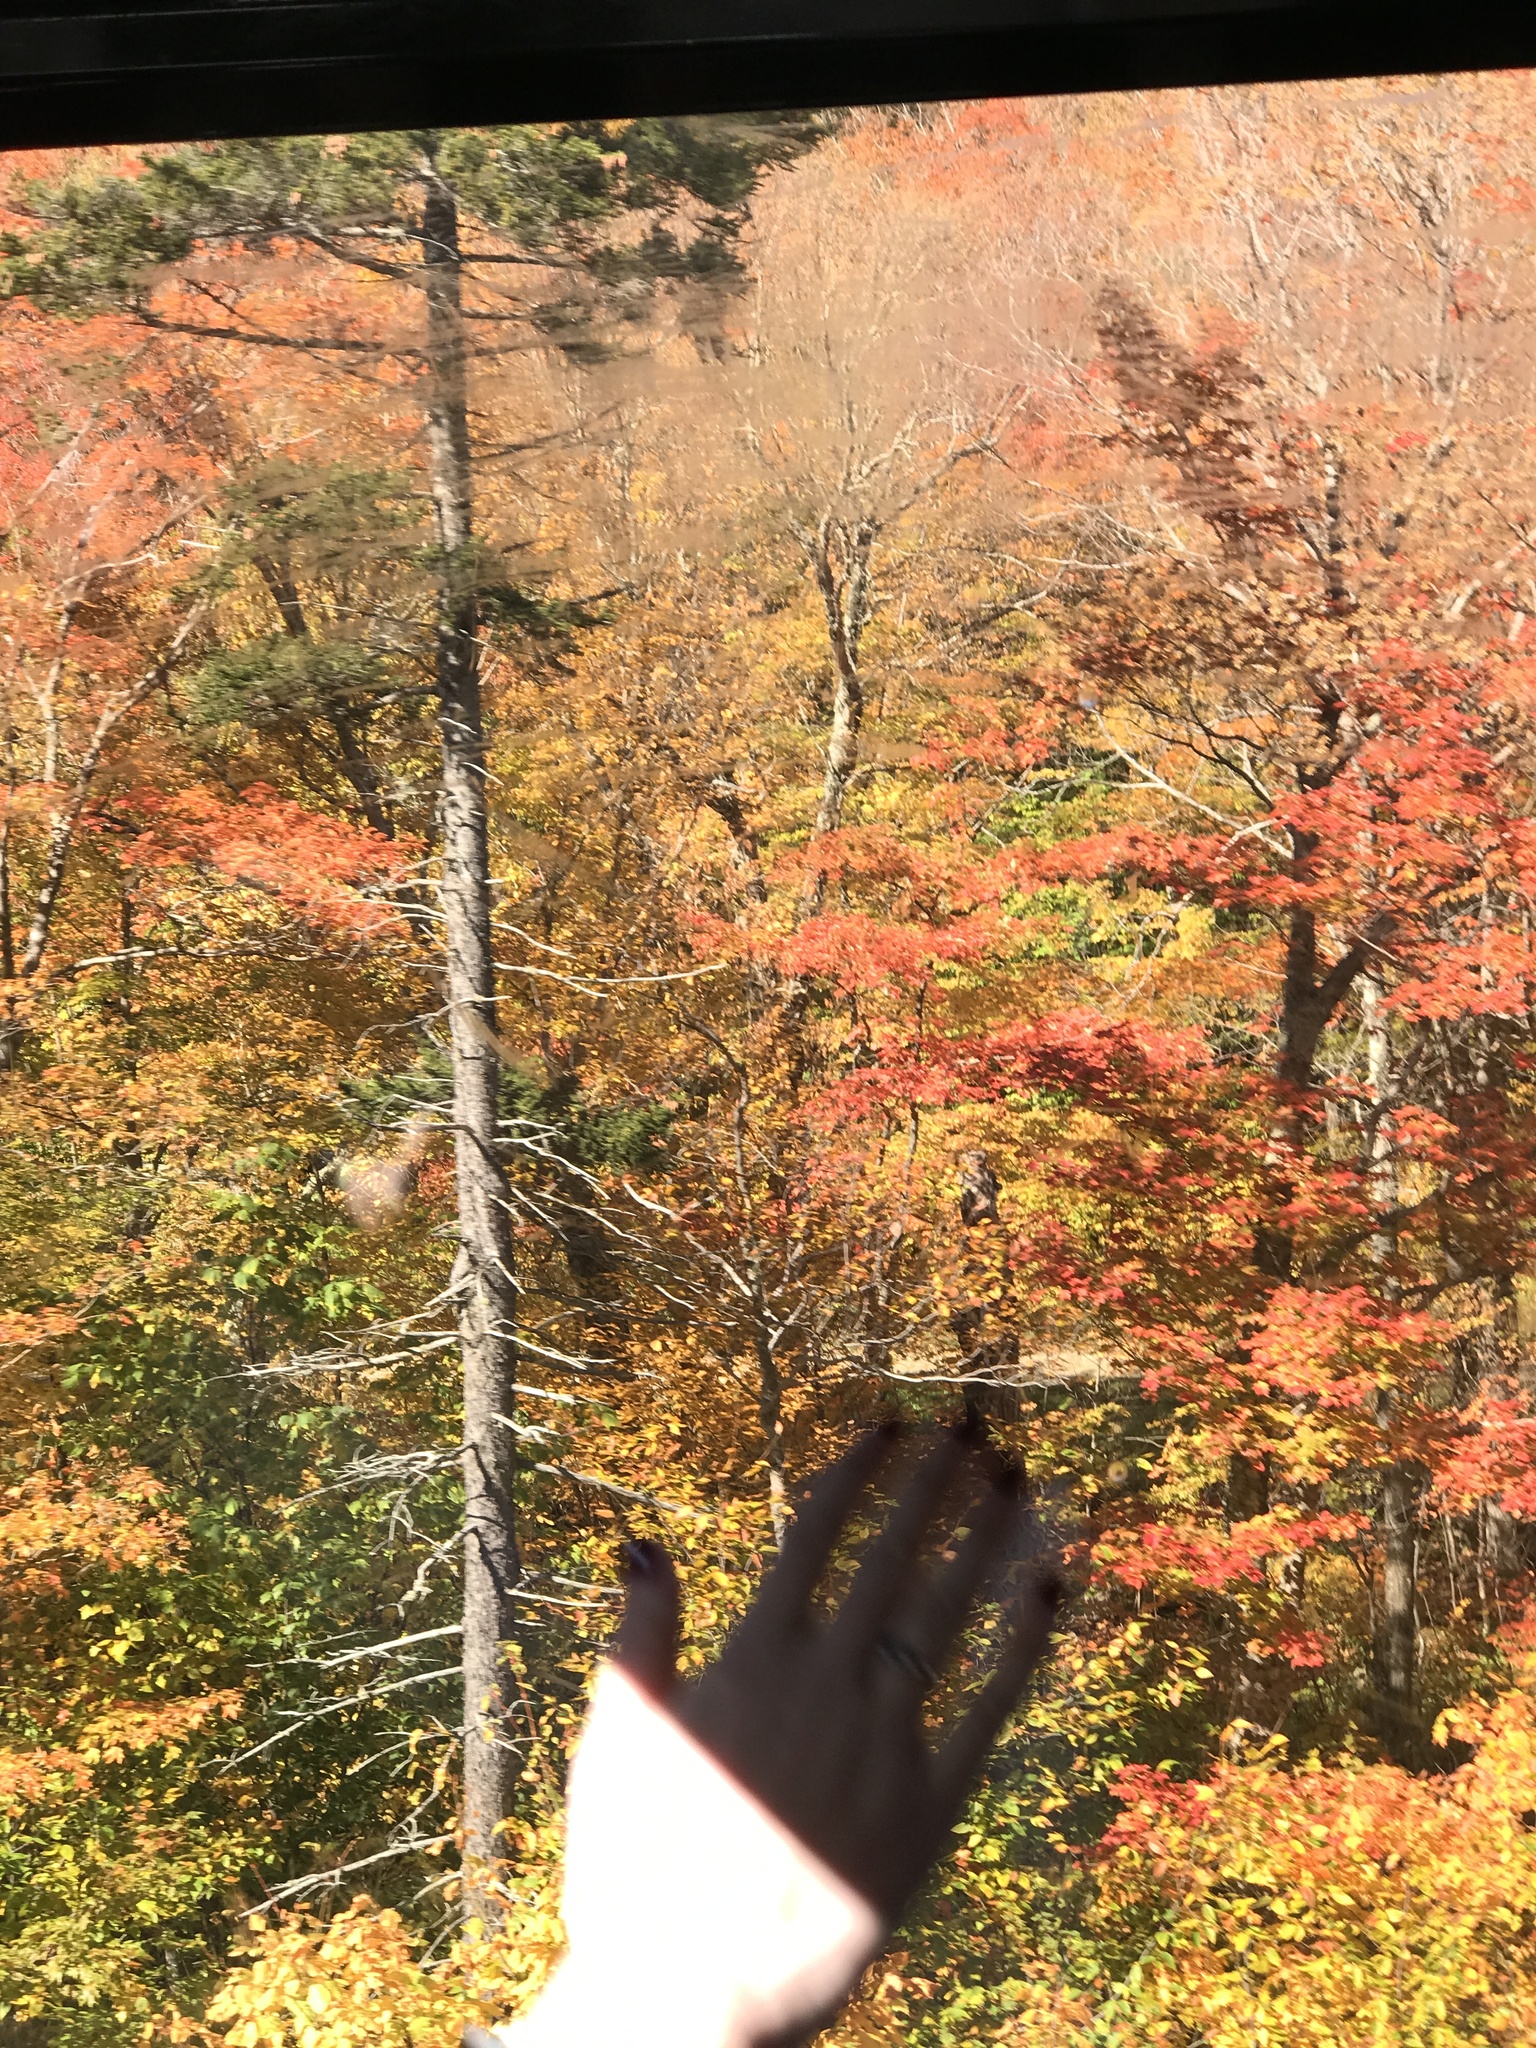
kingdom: Plantae
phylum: Tracheophyta
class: Pinopsida
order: Pinales
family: Pinaceae
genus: Picea
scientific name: Picea rubens
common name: Red spruce
